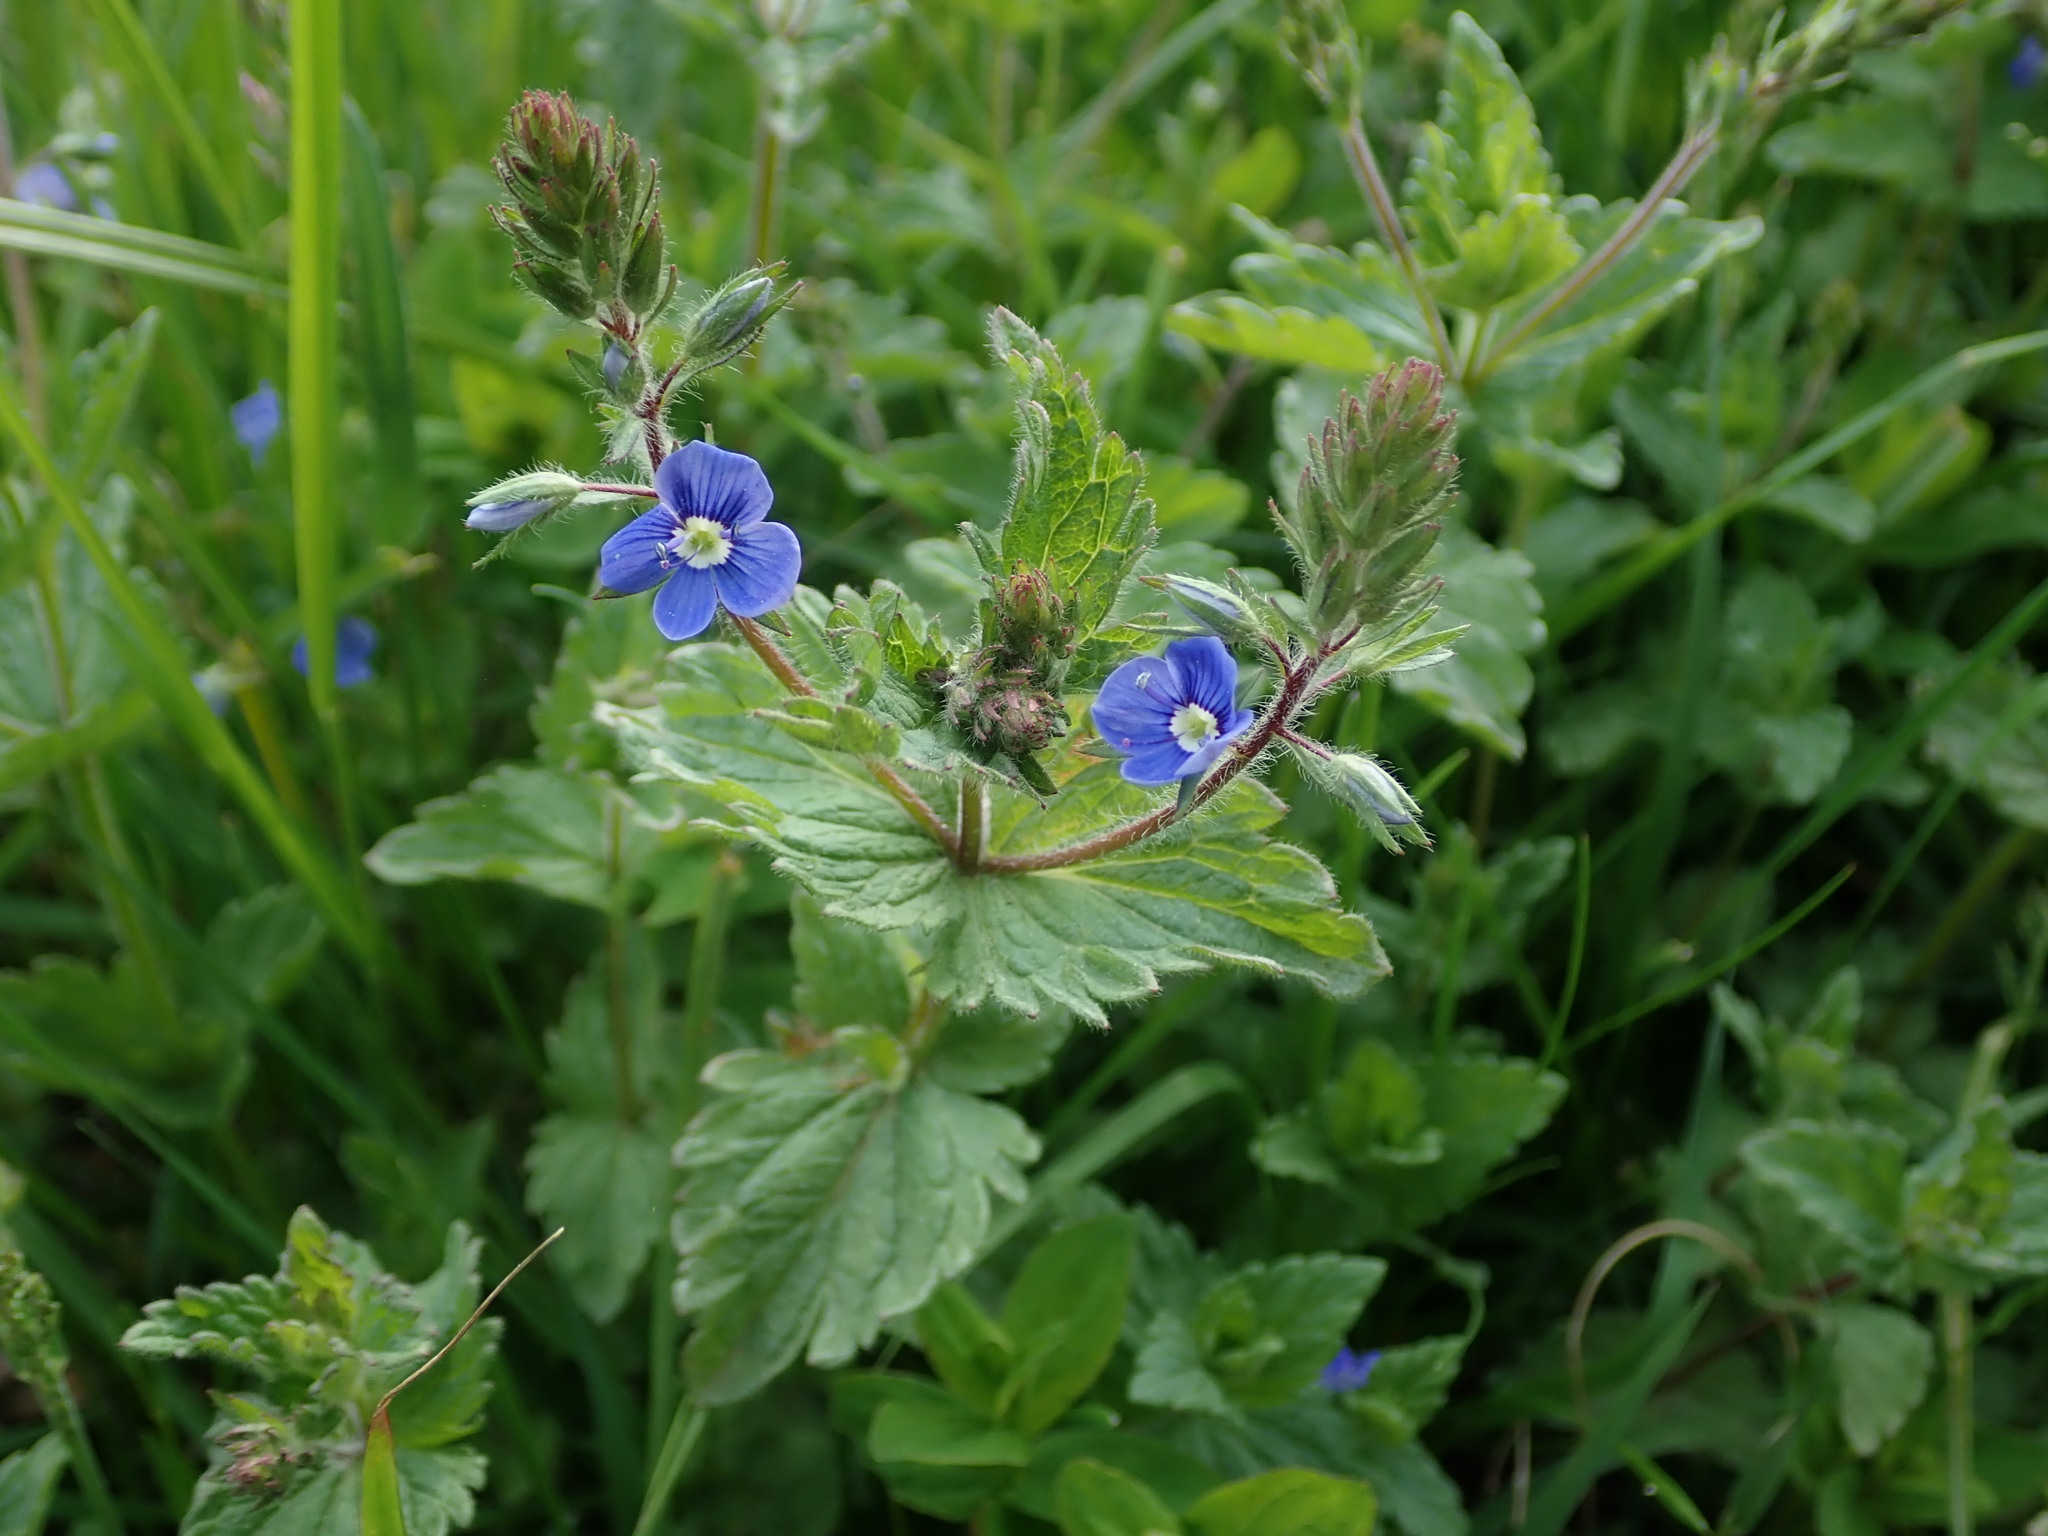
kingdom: Plantae
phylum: Tracheophyta
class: Magnoliopsida
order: Lamiales
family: Plantaginaceae
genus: Veronica
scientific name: Veronica chamaedrys
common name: Germander speedwell
